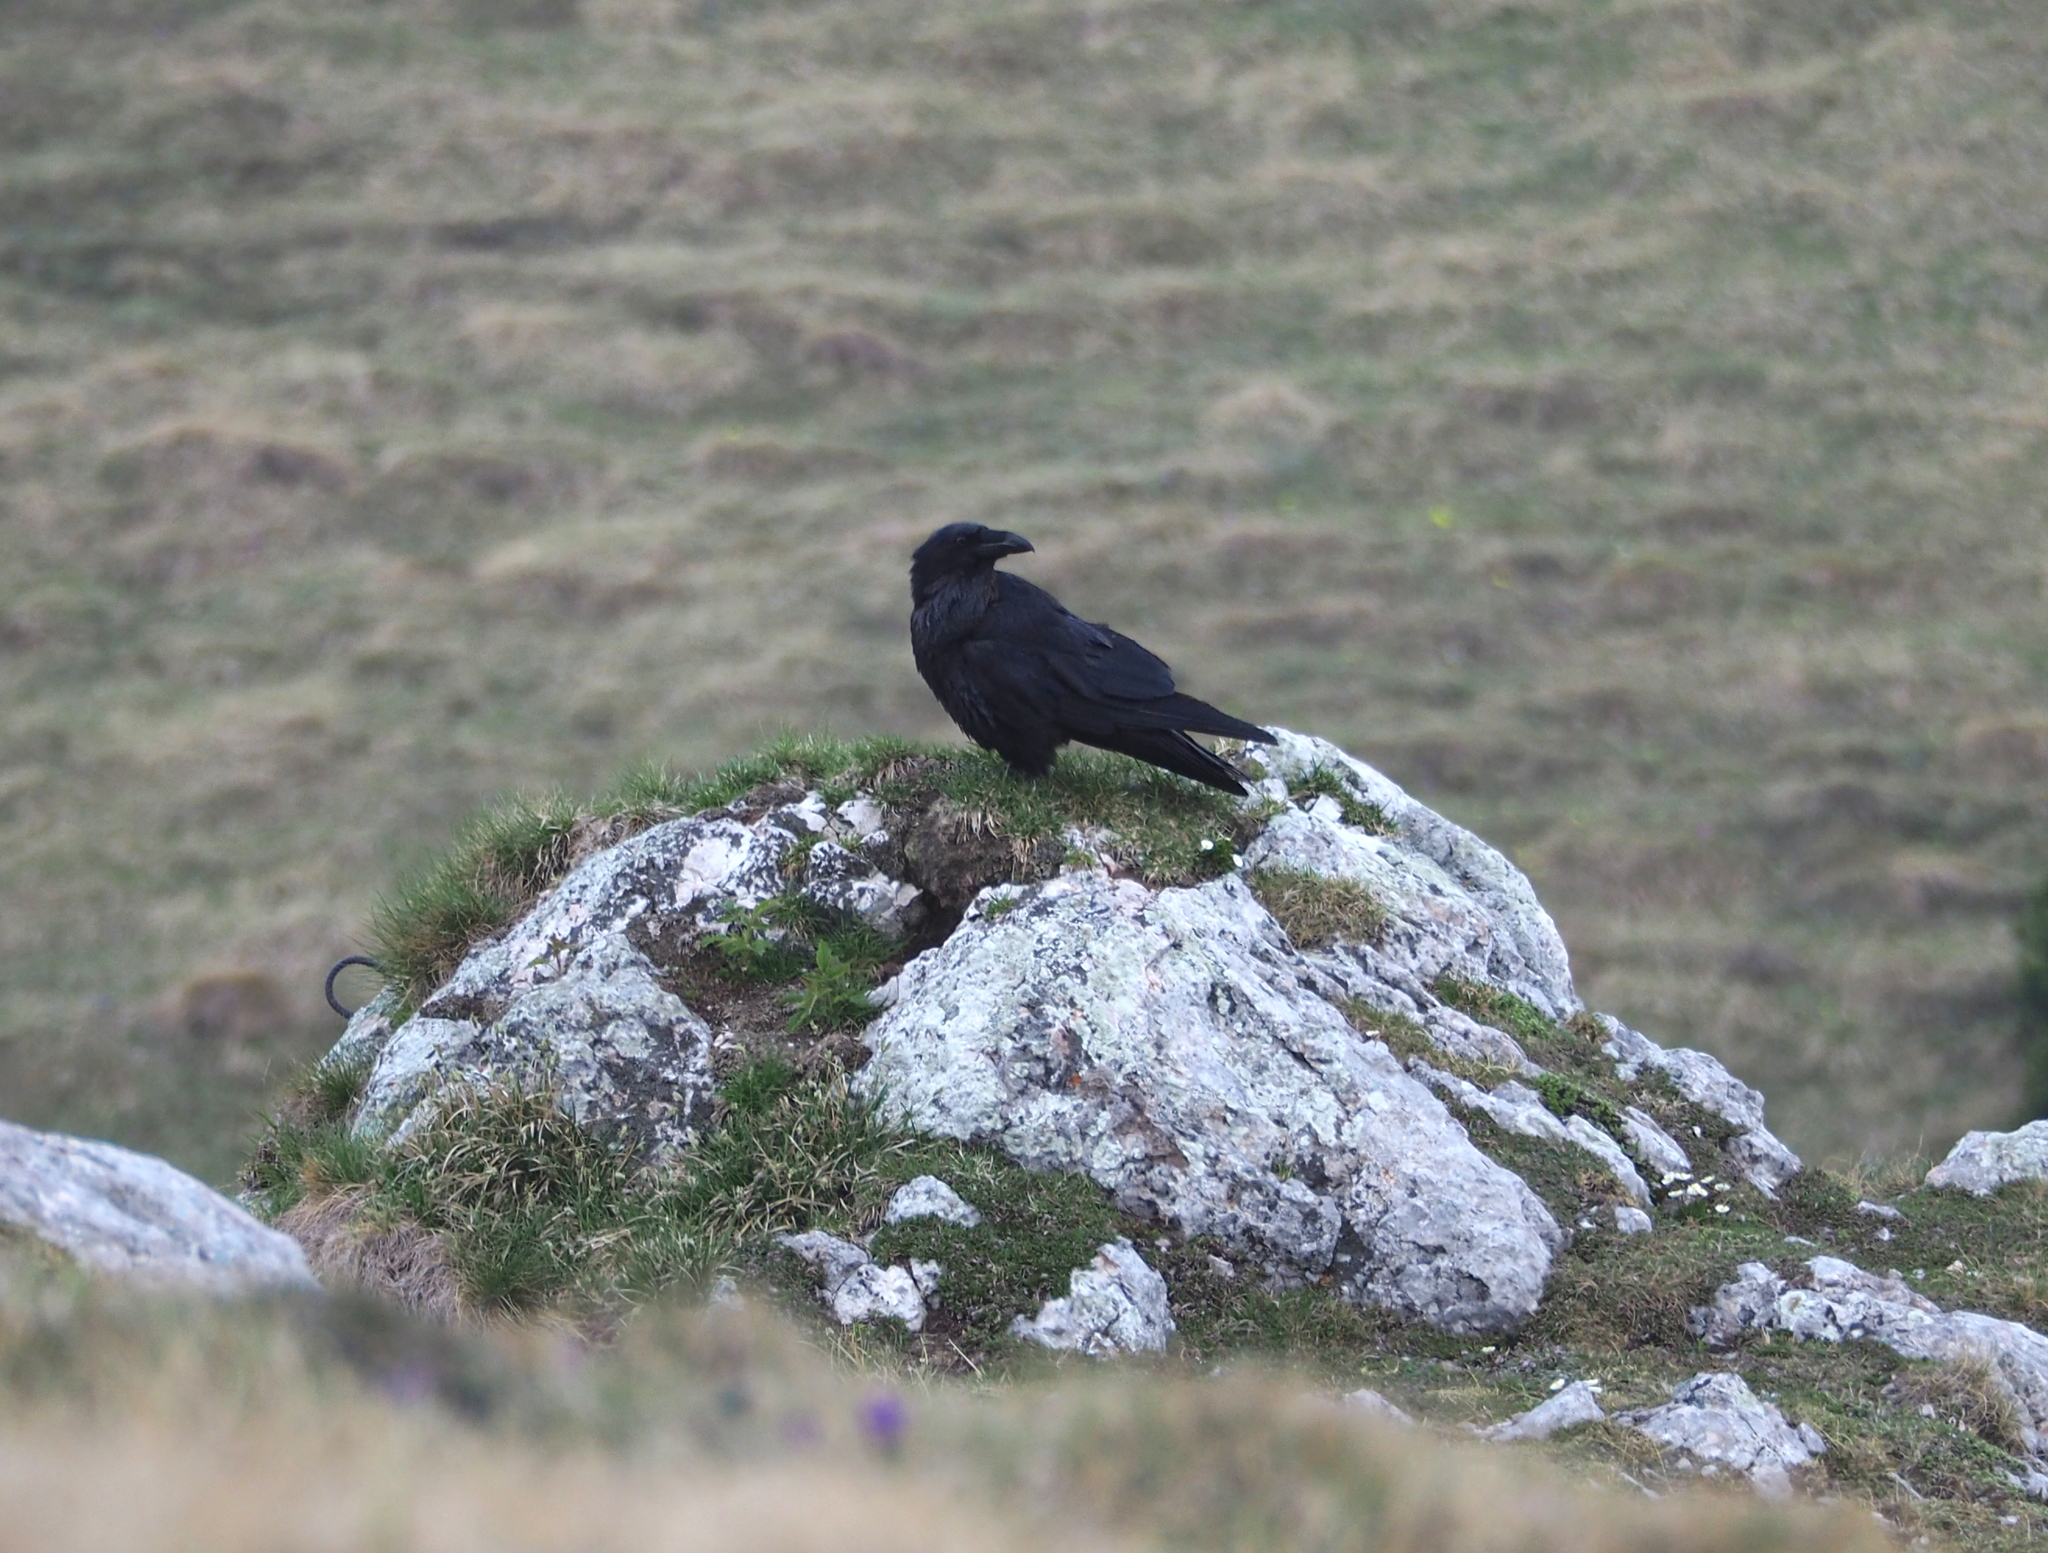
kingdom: Animalia
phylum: Chordata
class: Aves
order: Passeriformes
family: Corvidae
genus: Corvus
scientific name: Corvus corax
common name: Common raven
